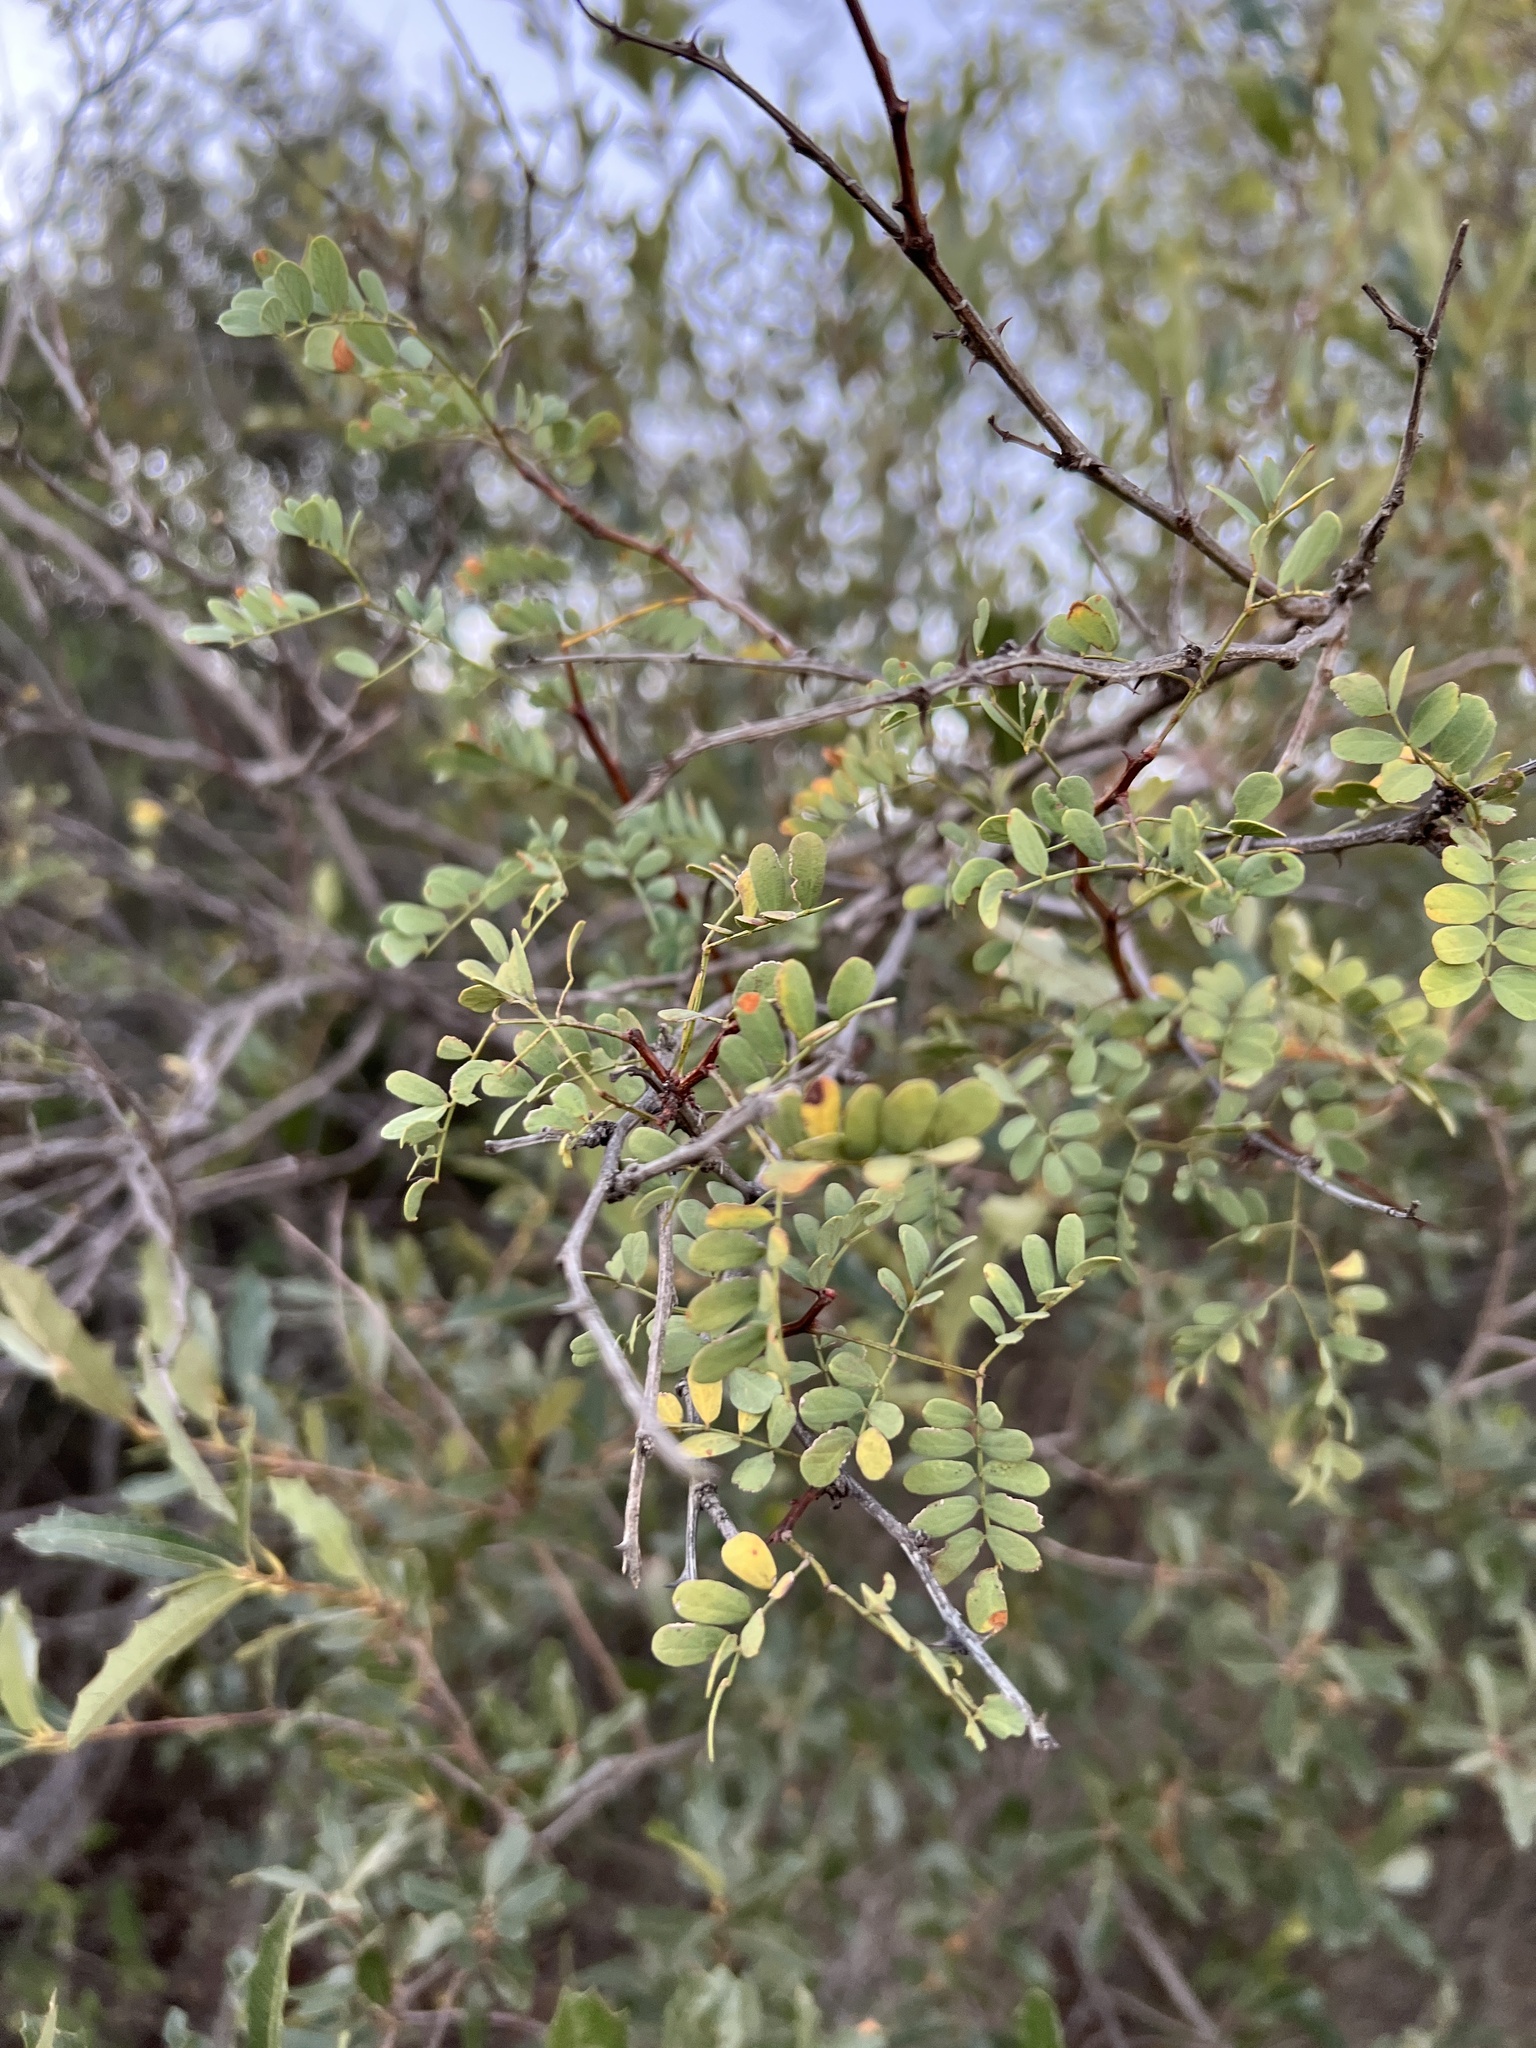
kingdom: Plantae
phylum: Tracheophyta
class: Magnoliopsida
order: Fabales
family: Fabaceae
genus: Senegalia
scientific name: Senegalia roemeriana
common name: Roemer's acacia
